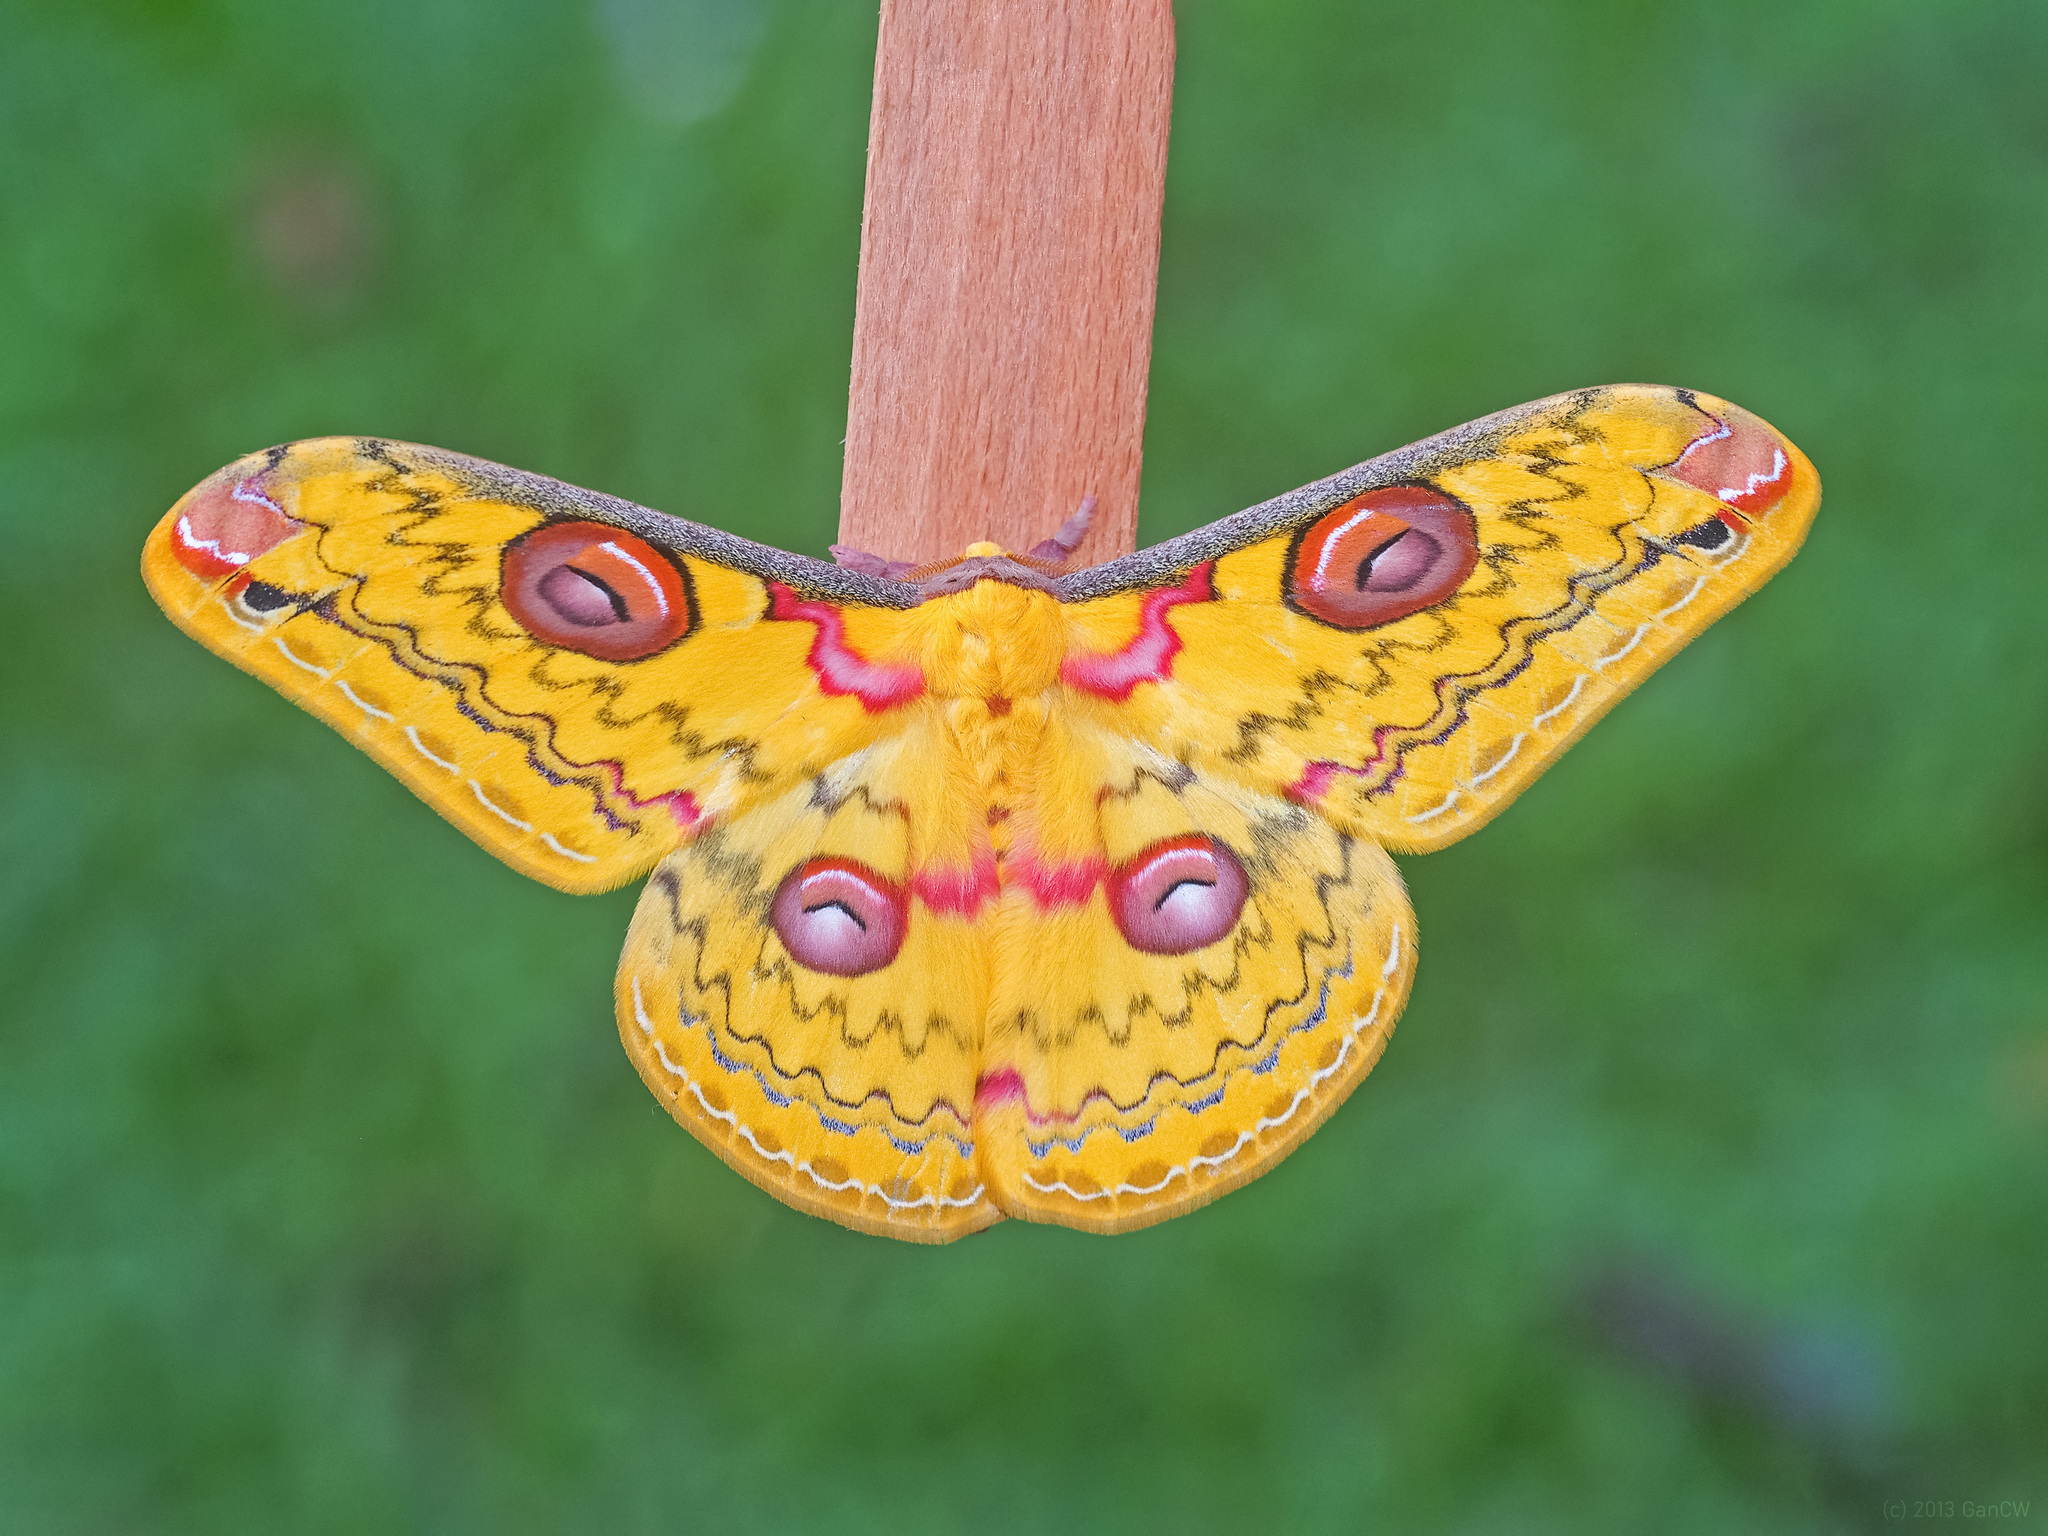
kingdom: Animalia
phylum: Arthropoda
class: Insecta
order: Lepidoptera
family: Saturniidae
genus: Loepa
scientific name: Loepa siamensis
